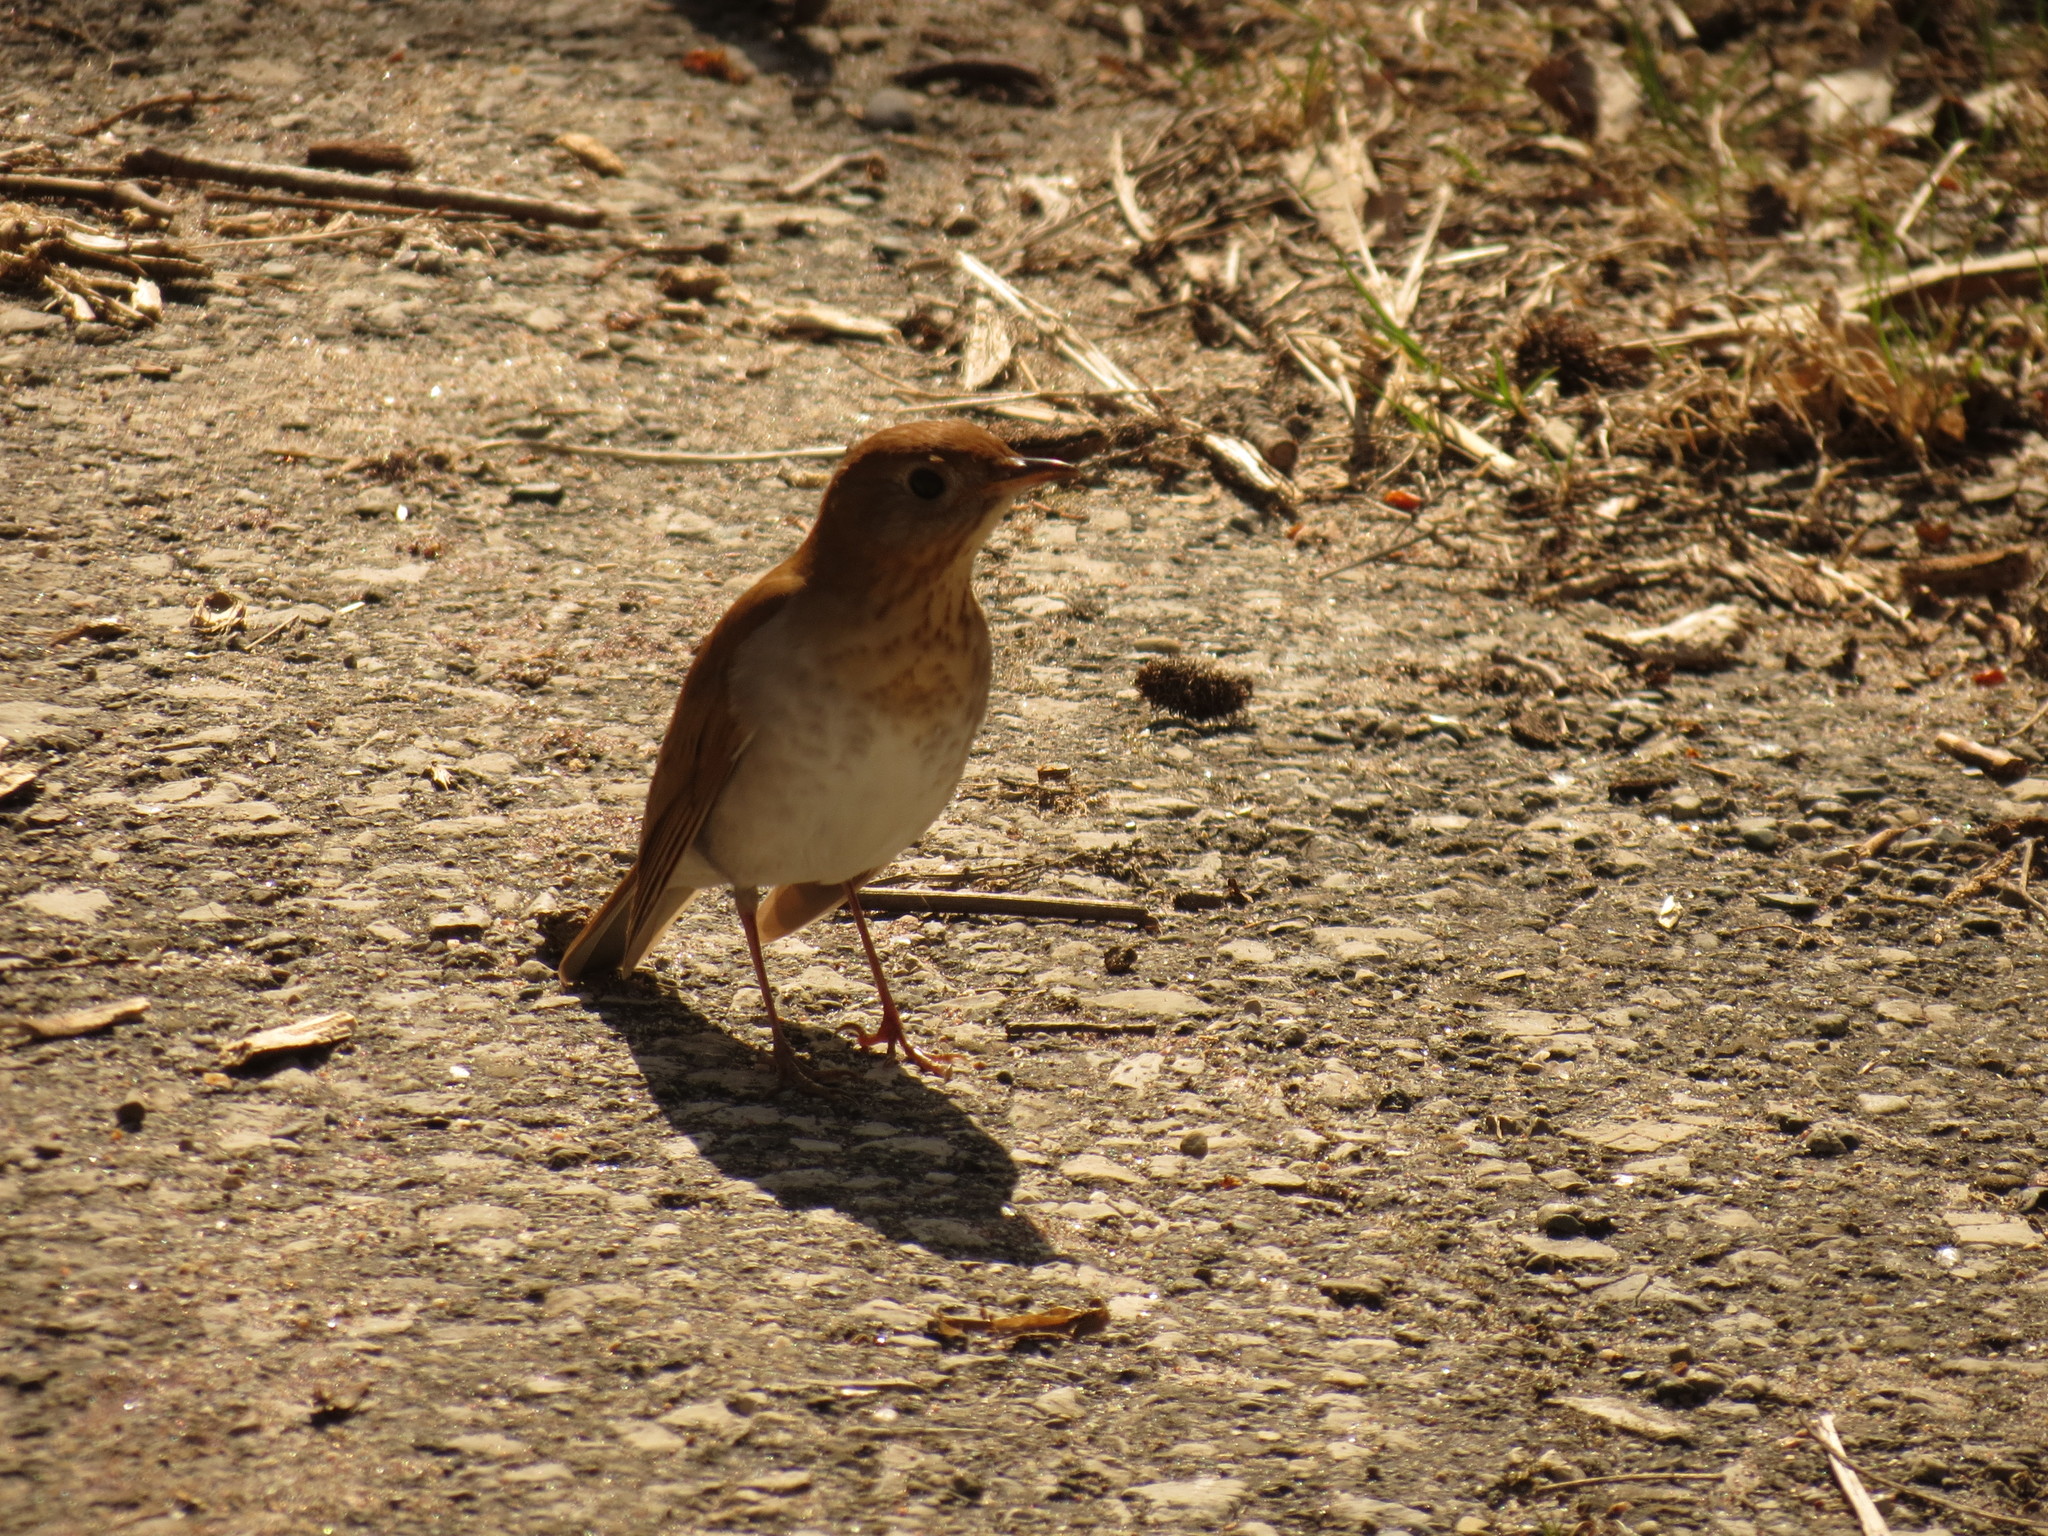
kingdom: Animalia
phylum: Chordata
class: Aves
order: Passeriformes
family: Turdidae
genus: Catharus
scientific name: Catharus fuscescens
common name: Veery
